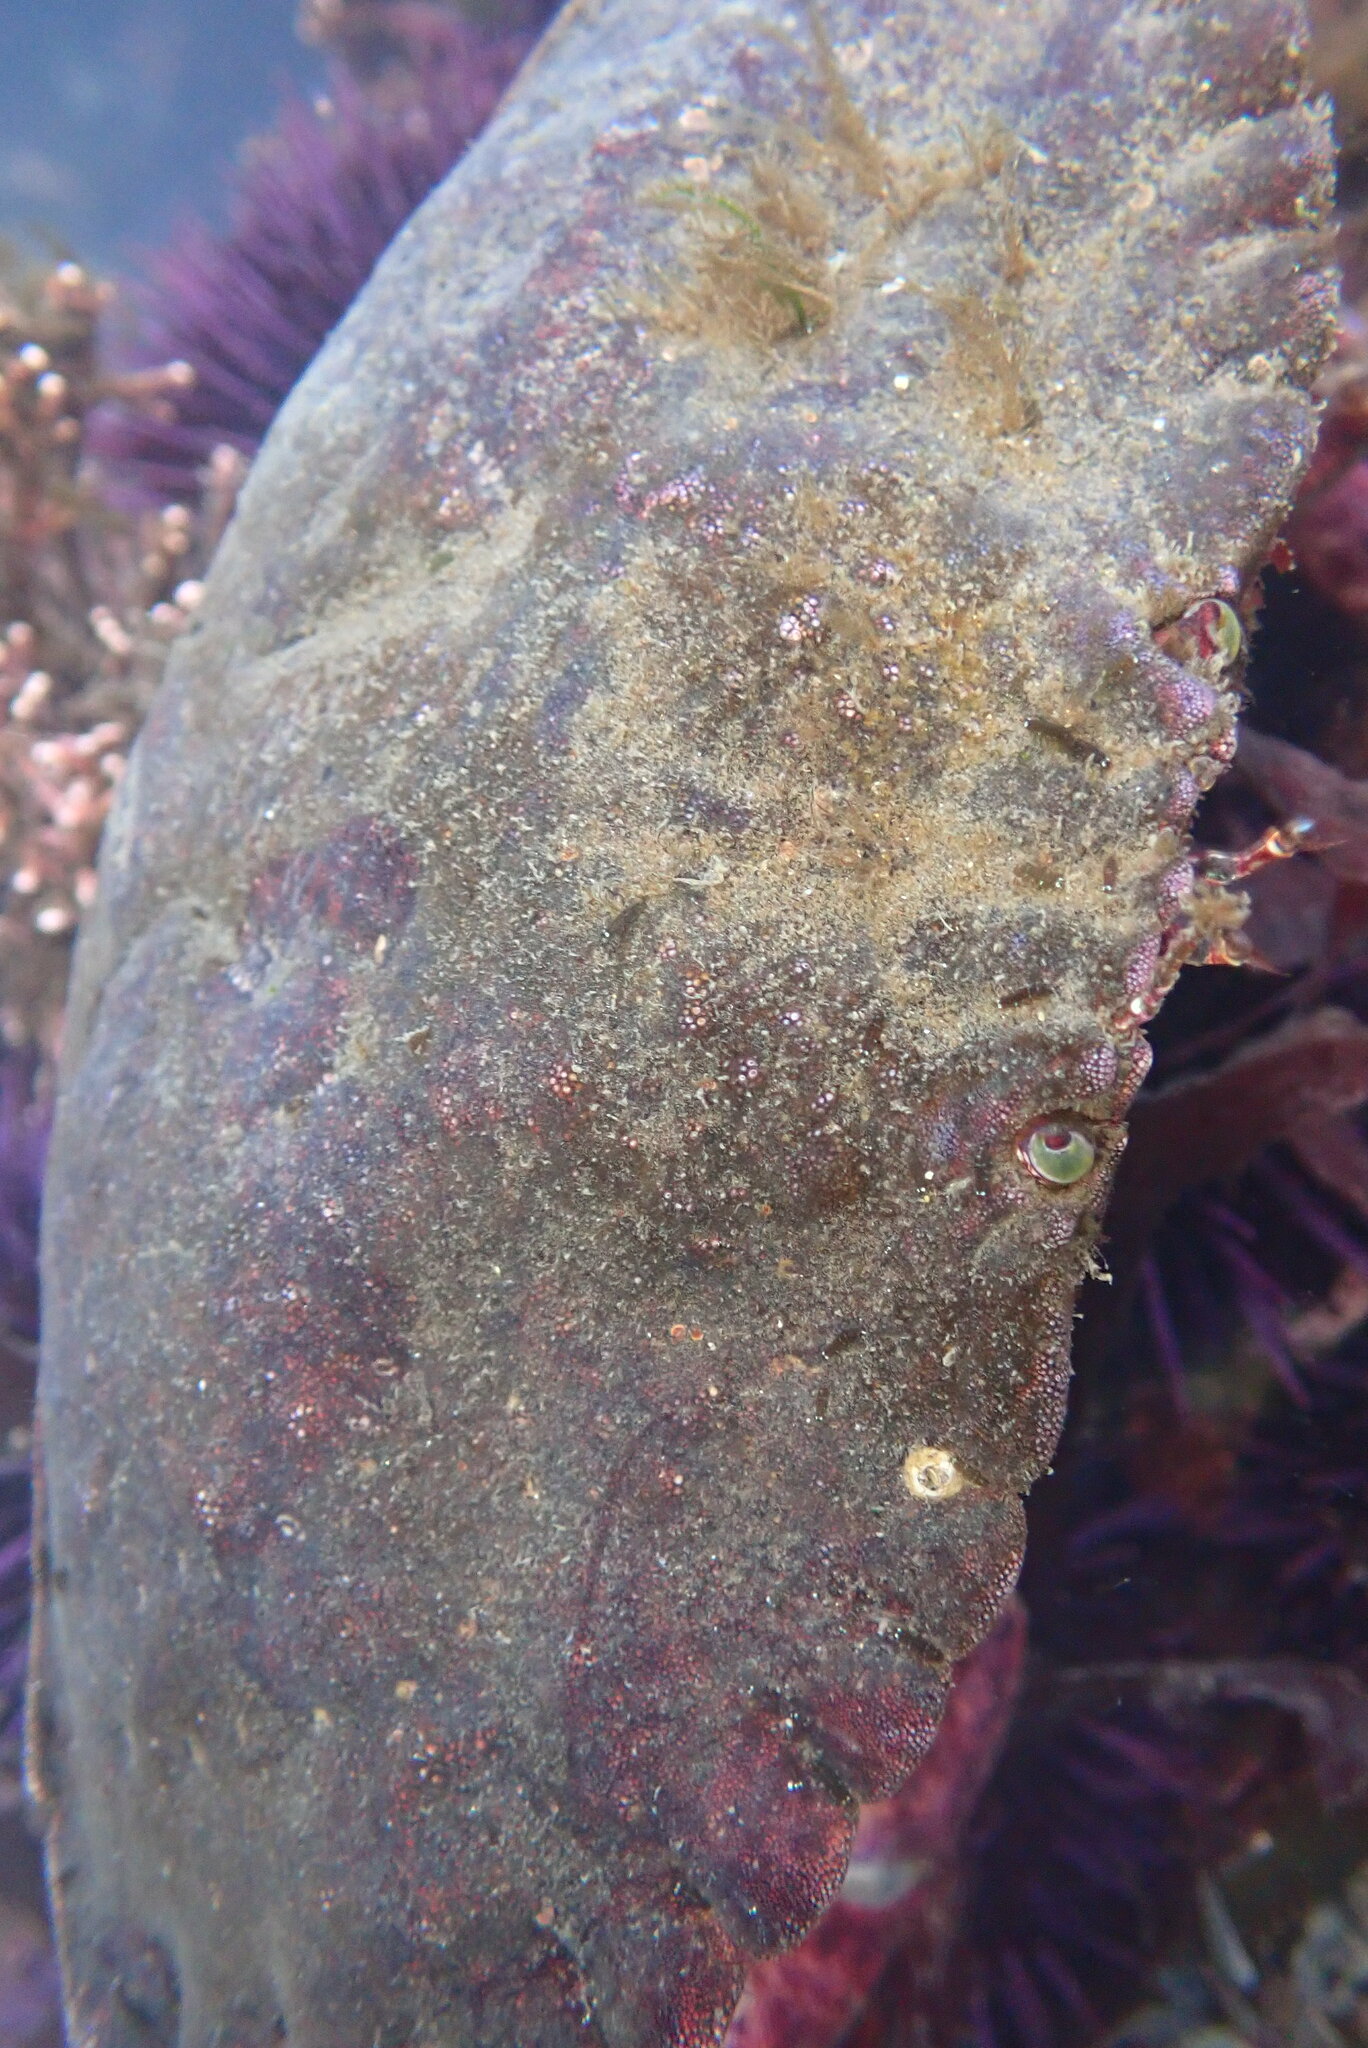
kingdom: Animalia
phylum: Arthropoda
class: Malacostraca
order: Decapoda
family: Cancridae
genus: Cancer
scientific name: Cancer productus
